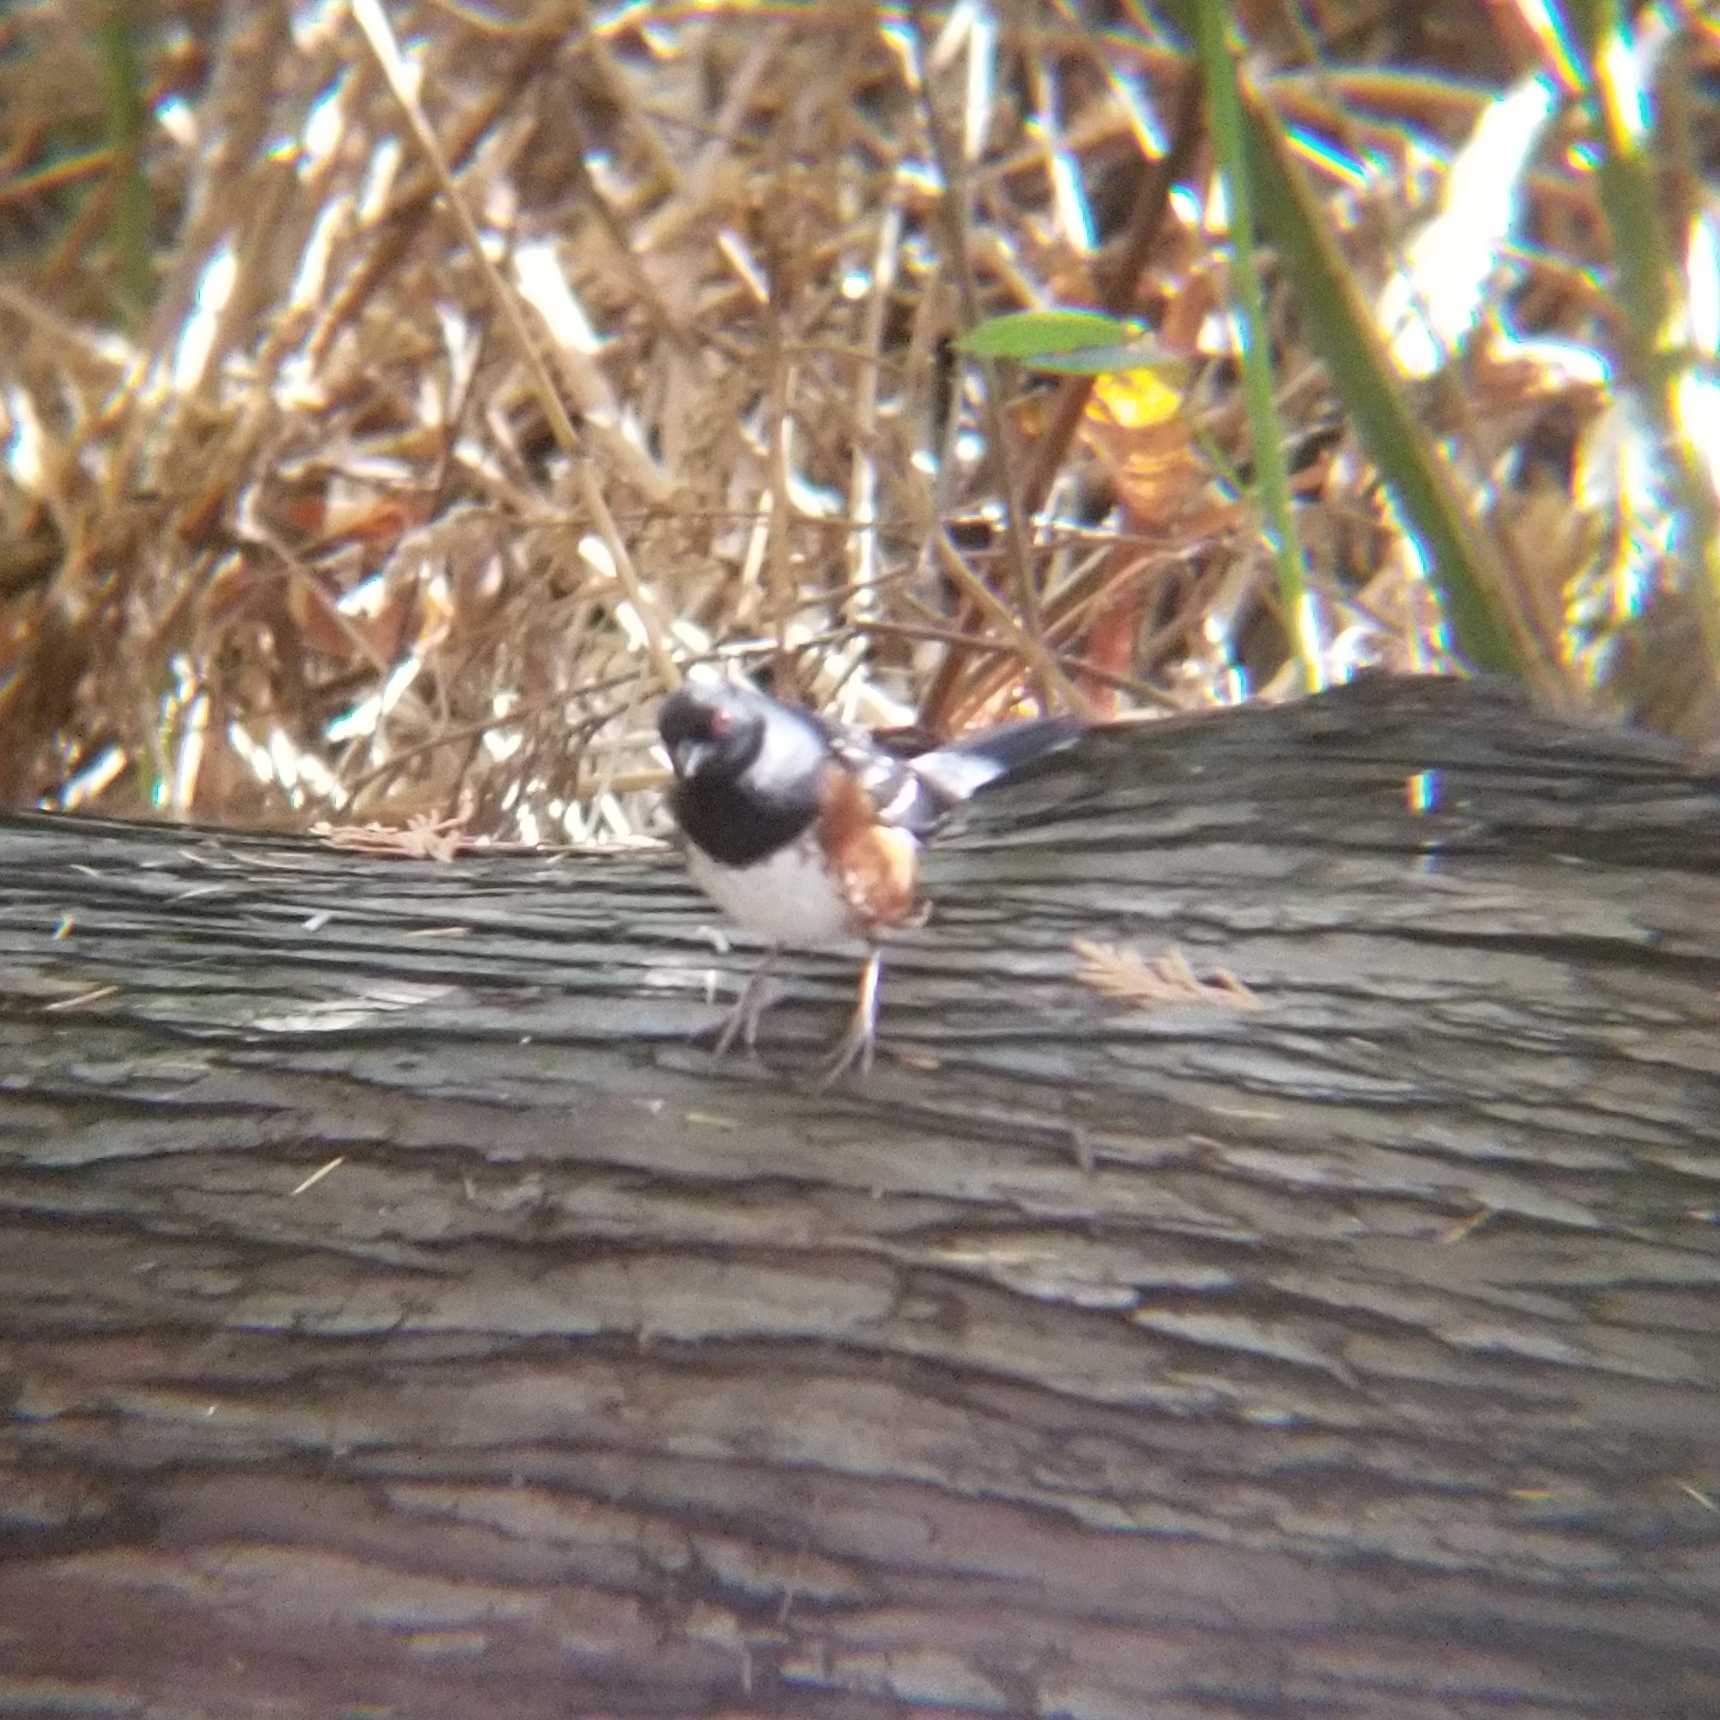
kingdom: Animalia
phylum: Chordata
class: Aves
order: Passeriformes
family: Passerellidae
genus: Pipilo
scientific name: Pipilo maculatus
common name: Spotted towhee
